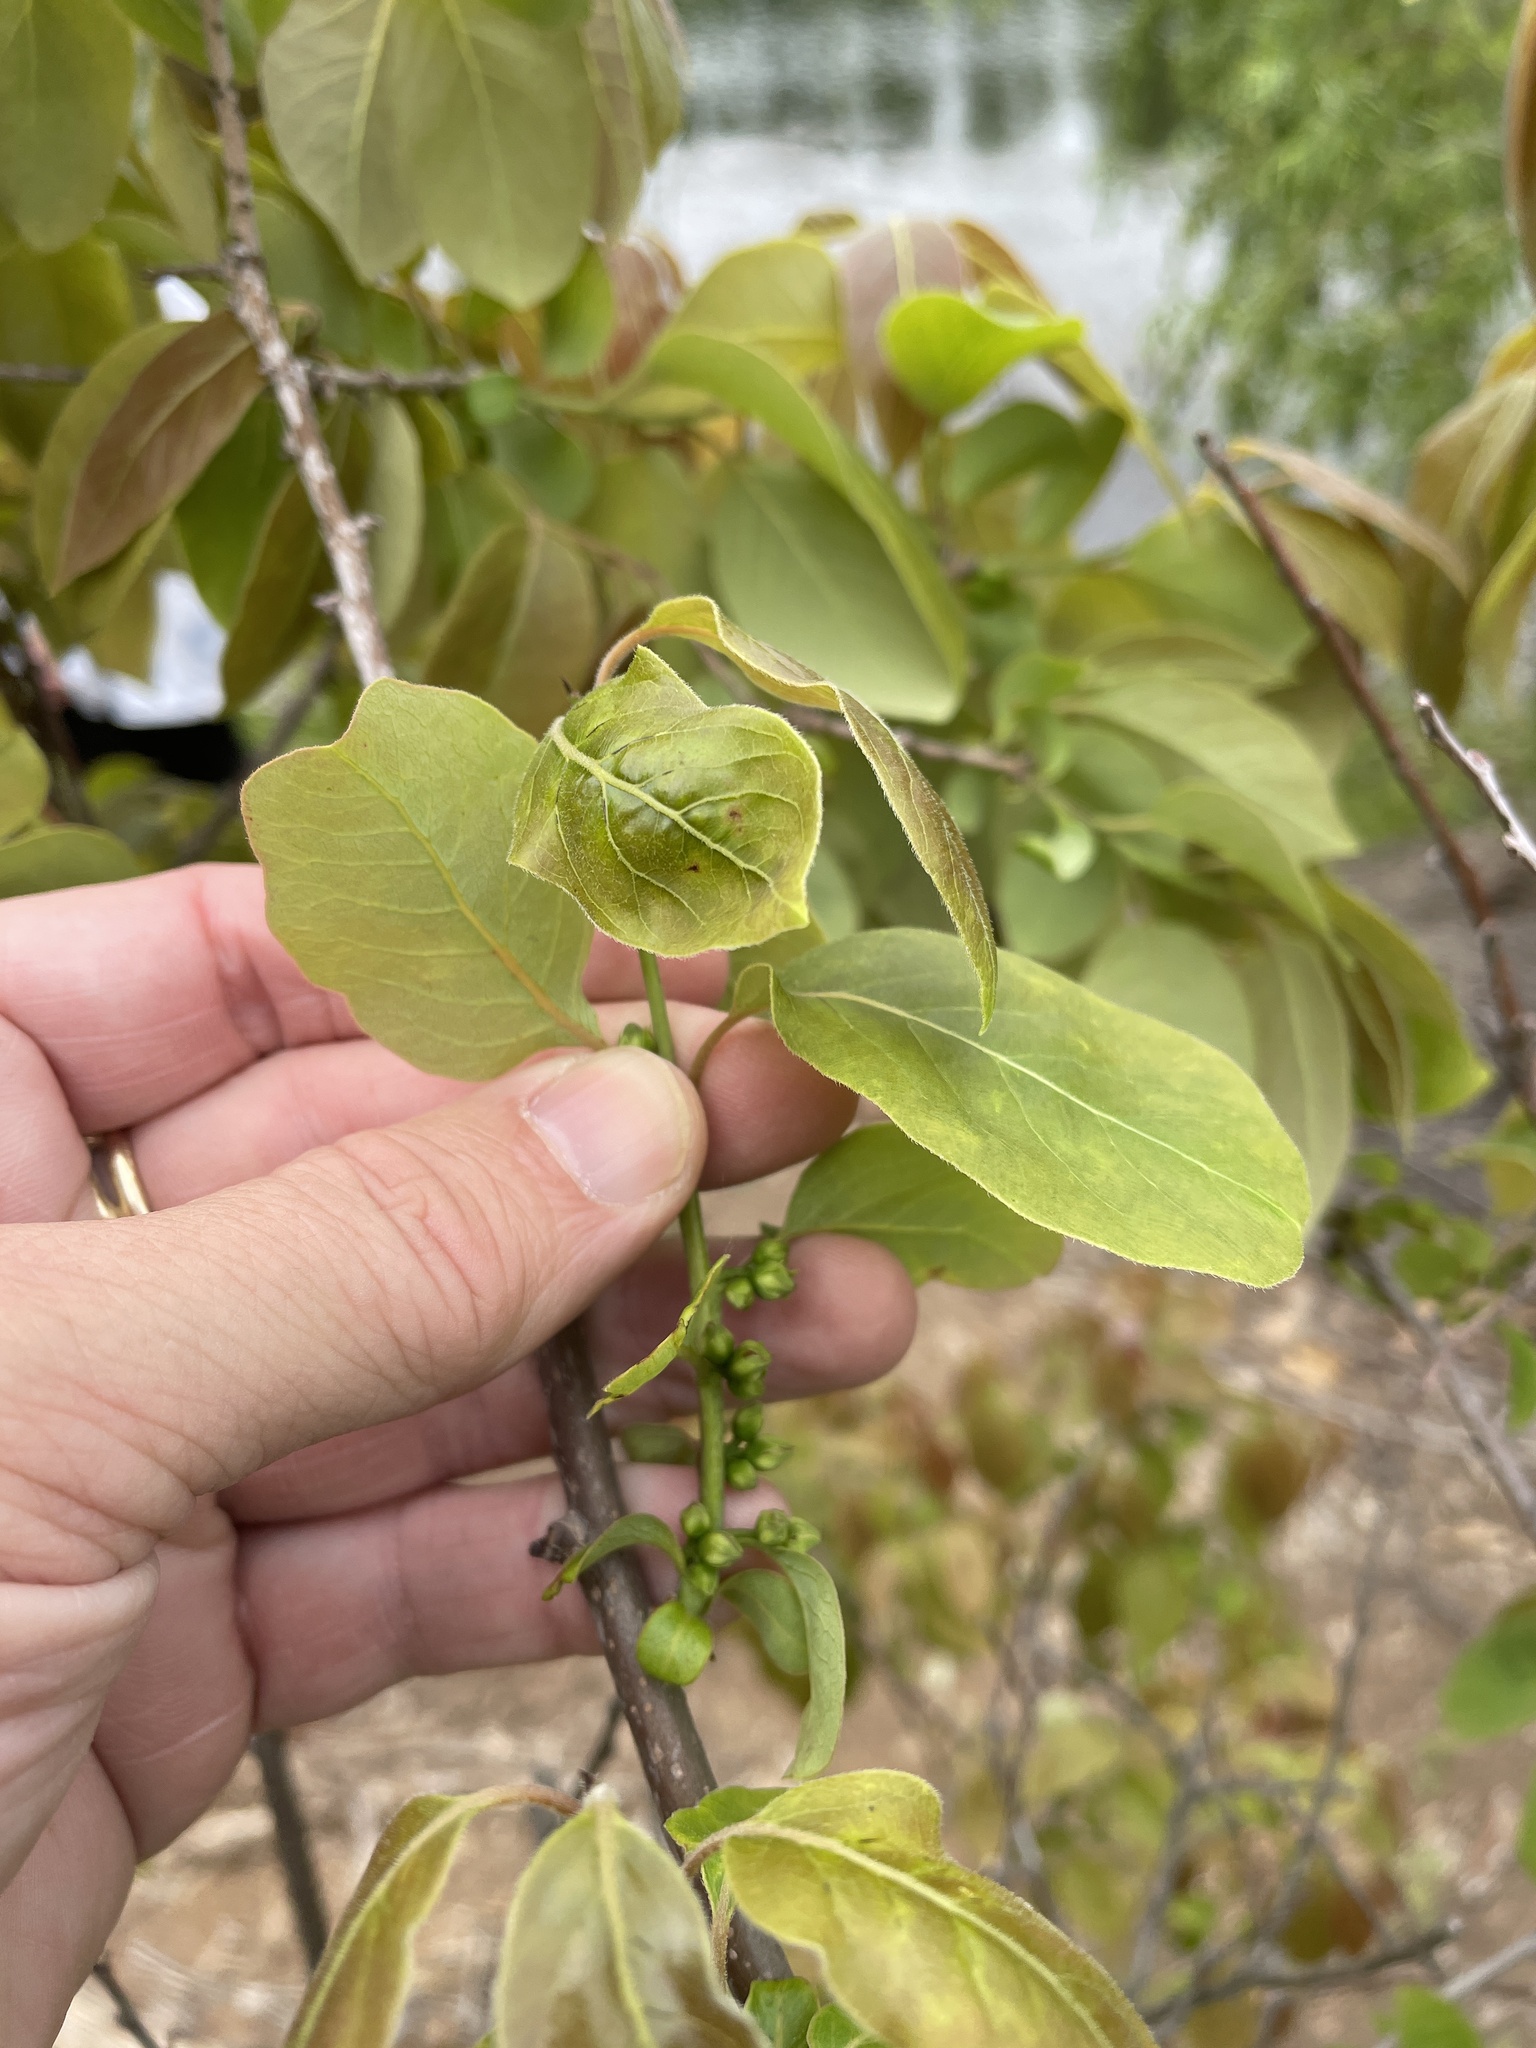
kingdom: Plantae
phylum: Tracheophyta
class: Magnoliopsida
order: Ericales
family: Ebenaceae
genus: Diospyros
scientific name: Diospyros virginiana
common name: Persimmon
